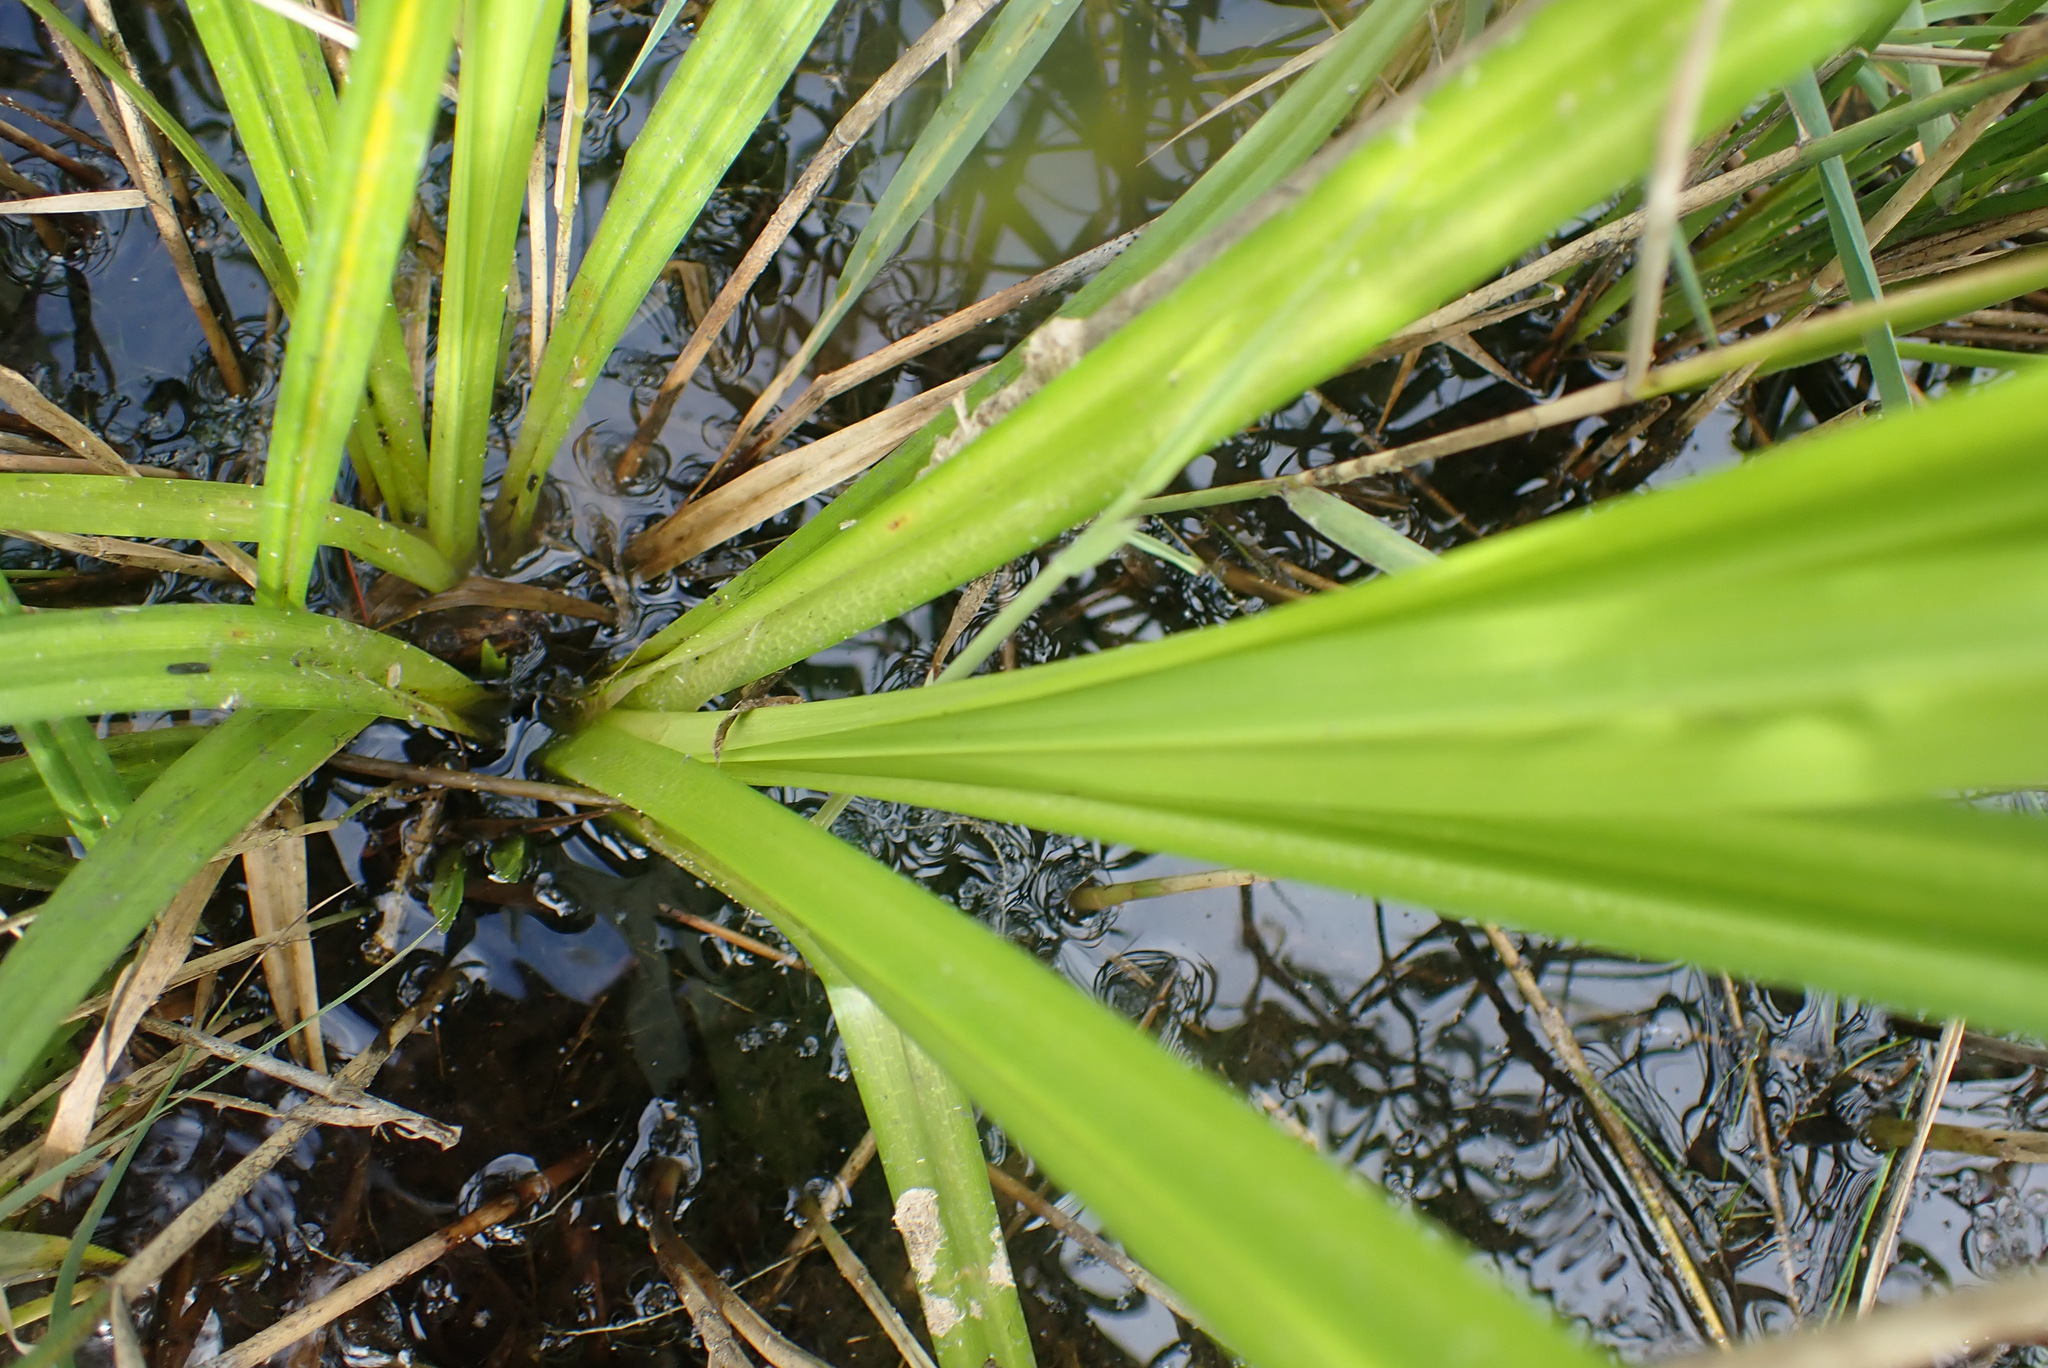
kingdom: Plantae
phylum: Tracheophyta
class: Liliopsida
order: Poales
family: Cyperaceae
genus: Carex
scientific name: Carex pseudocyperus
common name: Cyperus sedge
